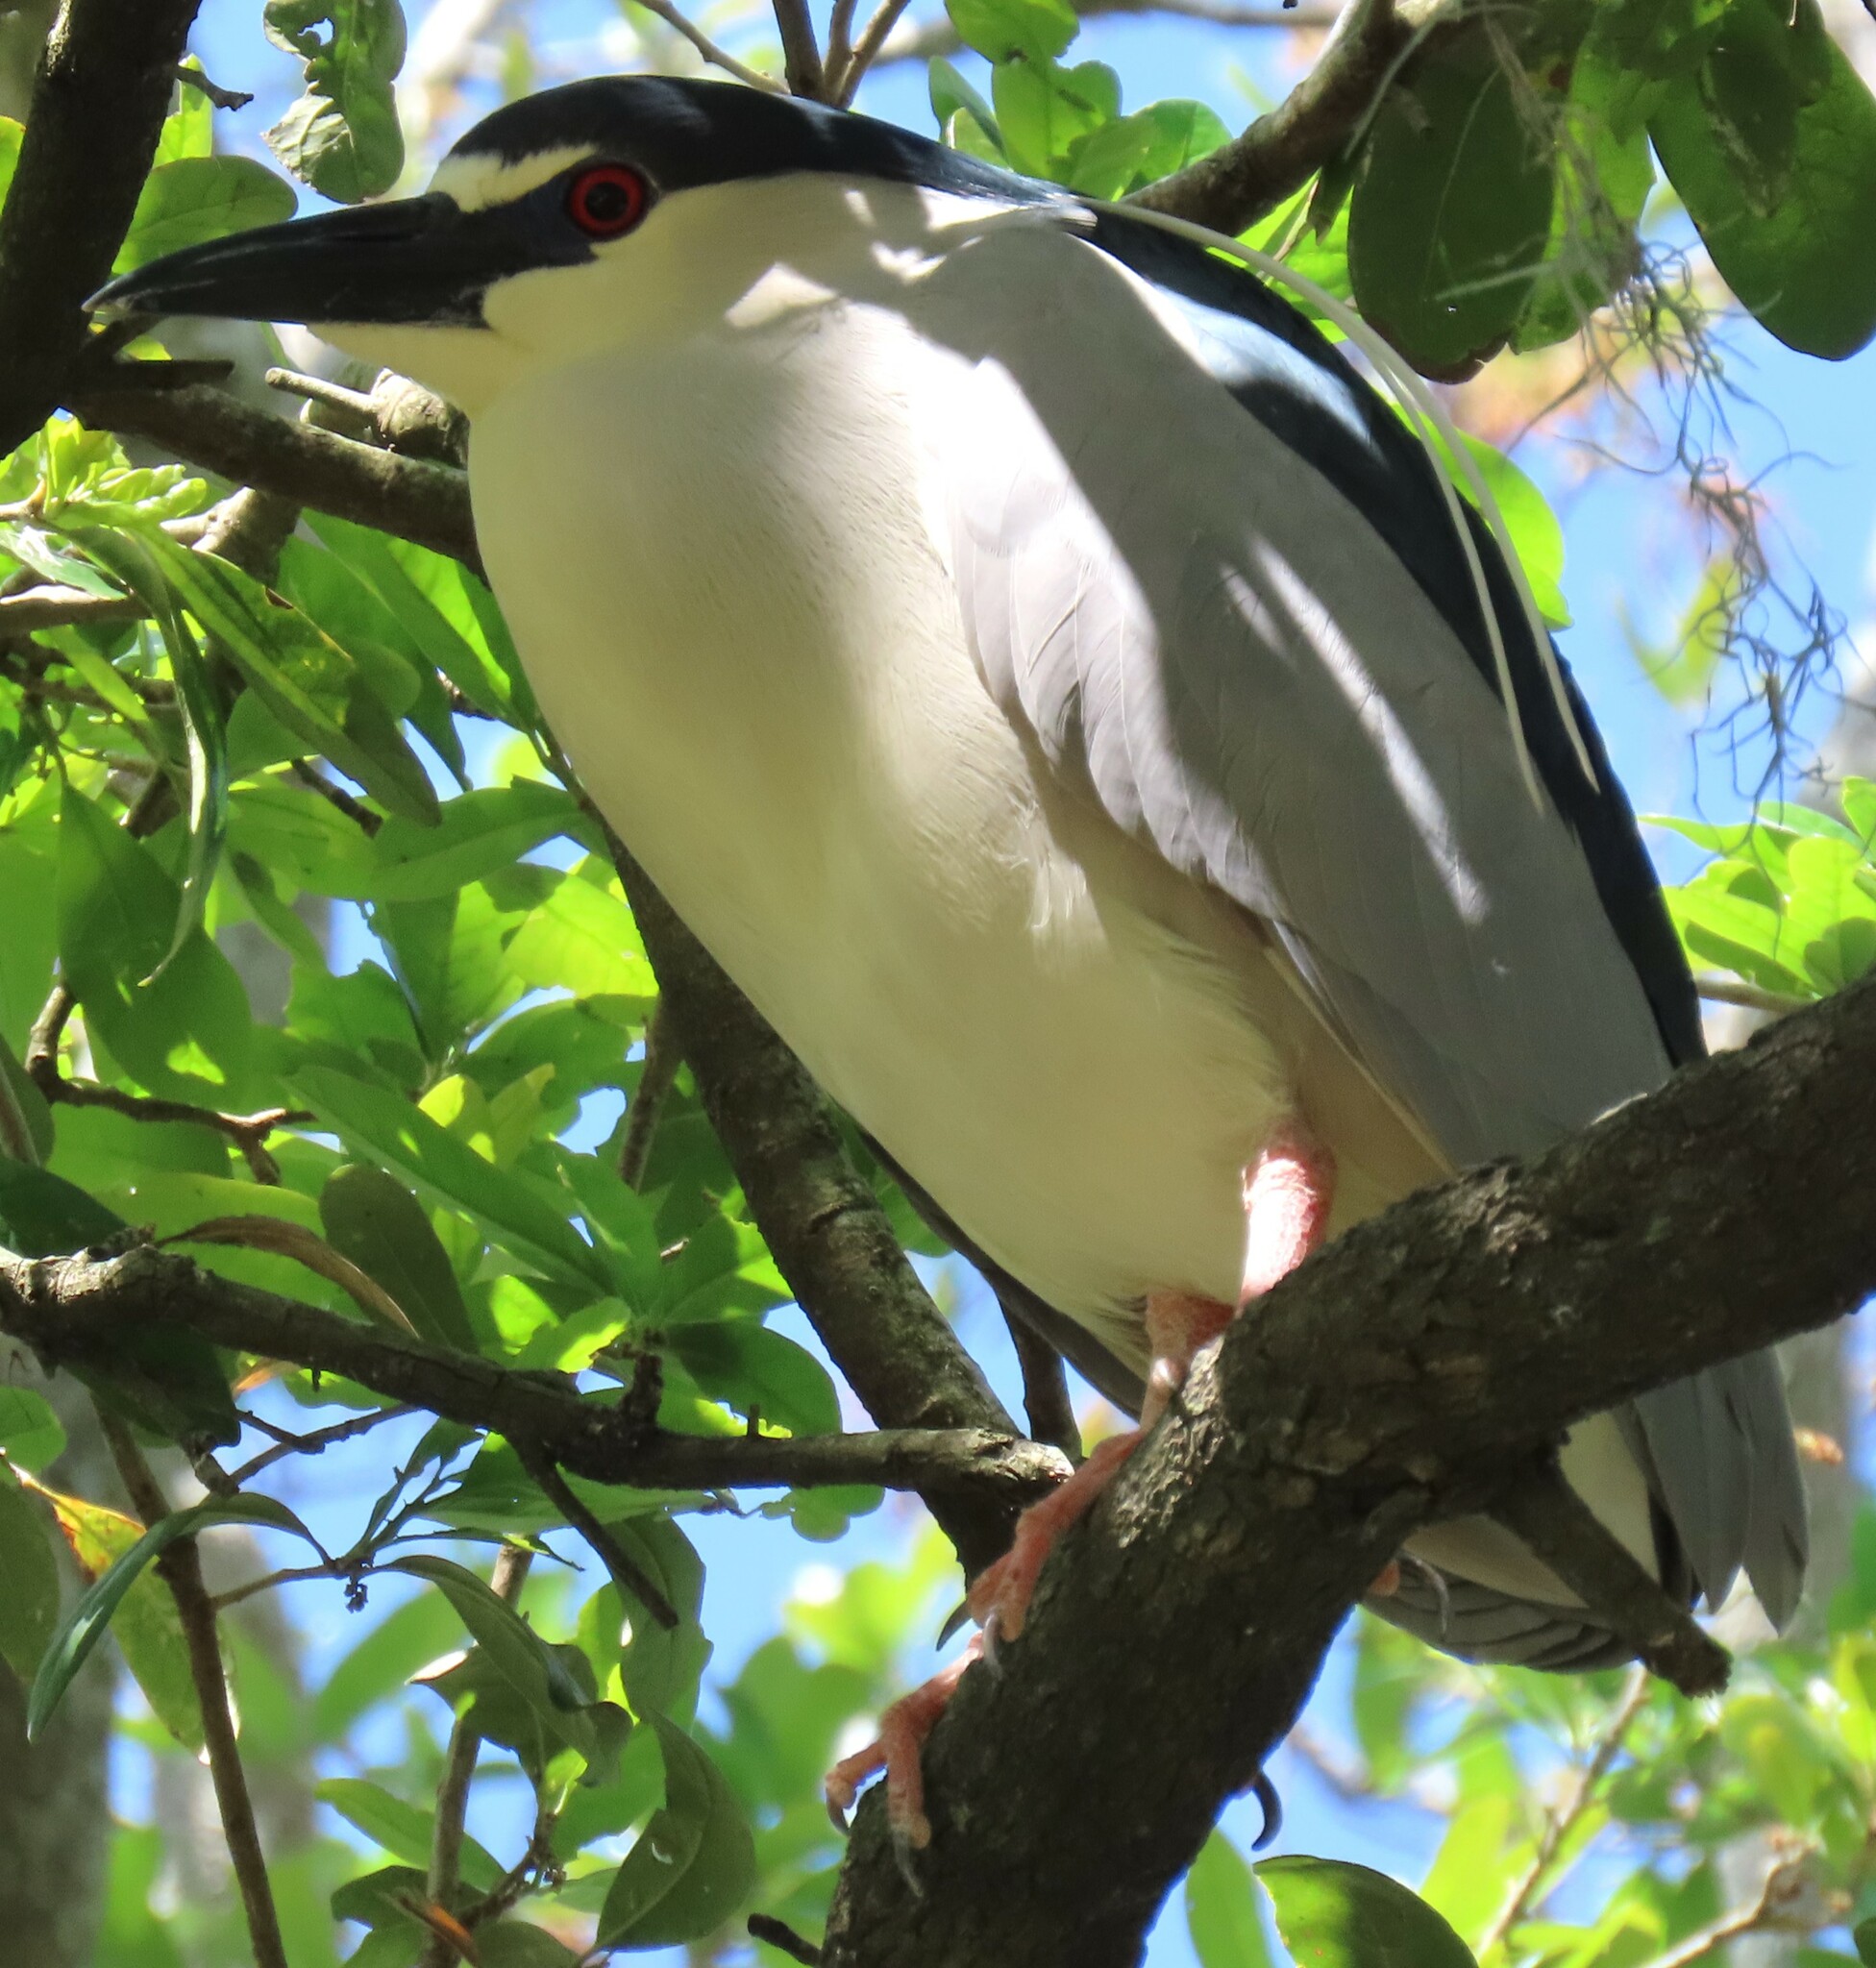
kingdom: Animalia
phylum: Chordata
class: Aves
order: Pelecaniformes
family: Ardeidae
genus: Nycticorax
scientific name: Nycticorax nycticorax
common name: Black-crowned night heron
